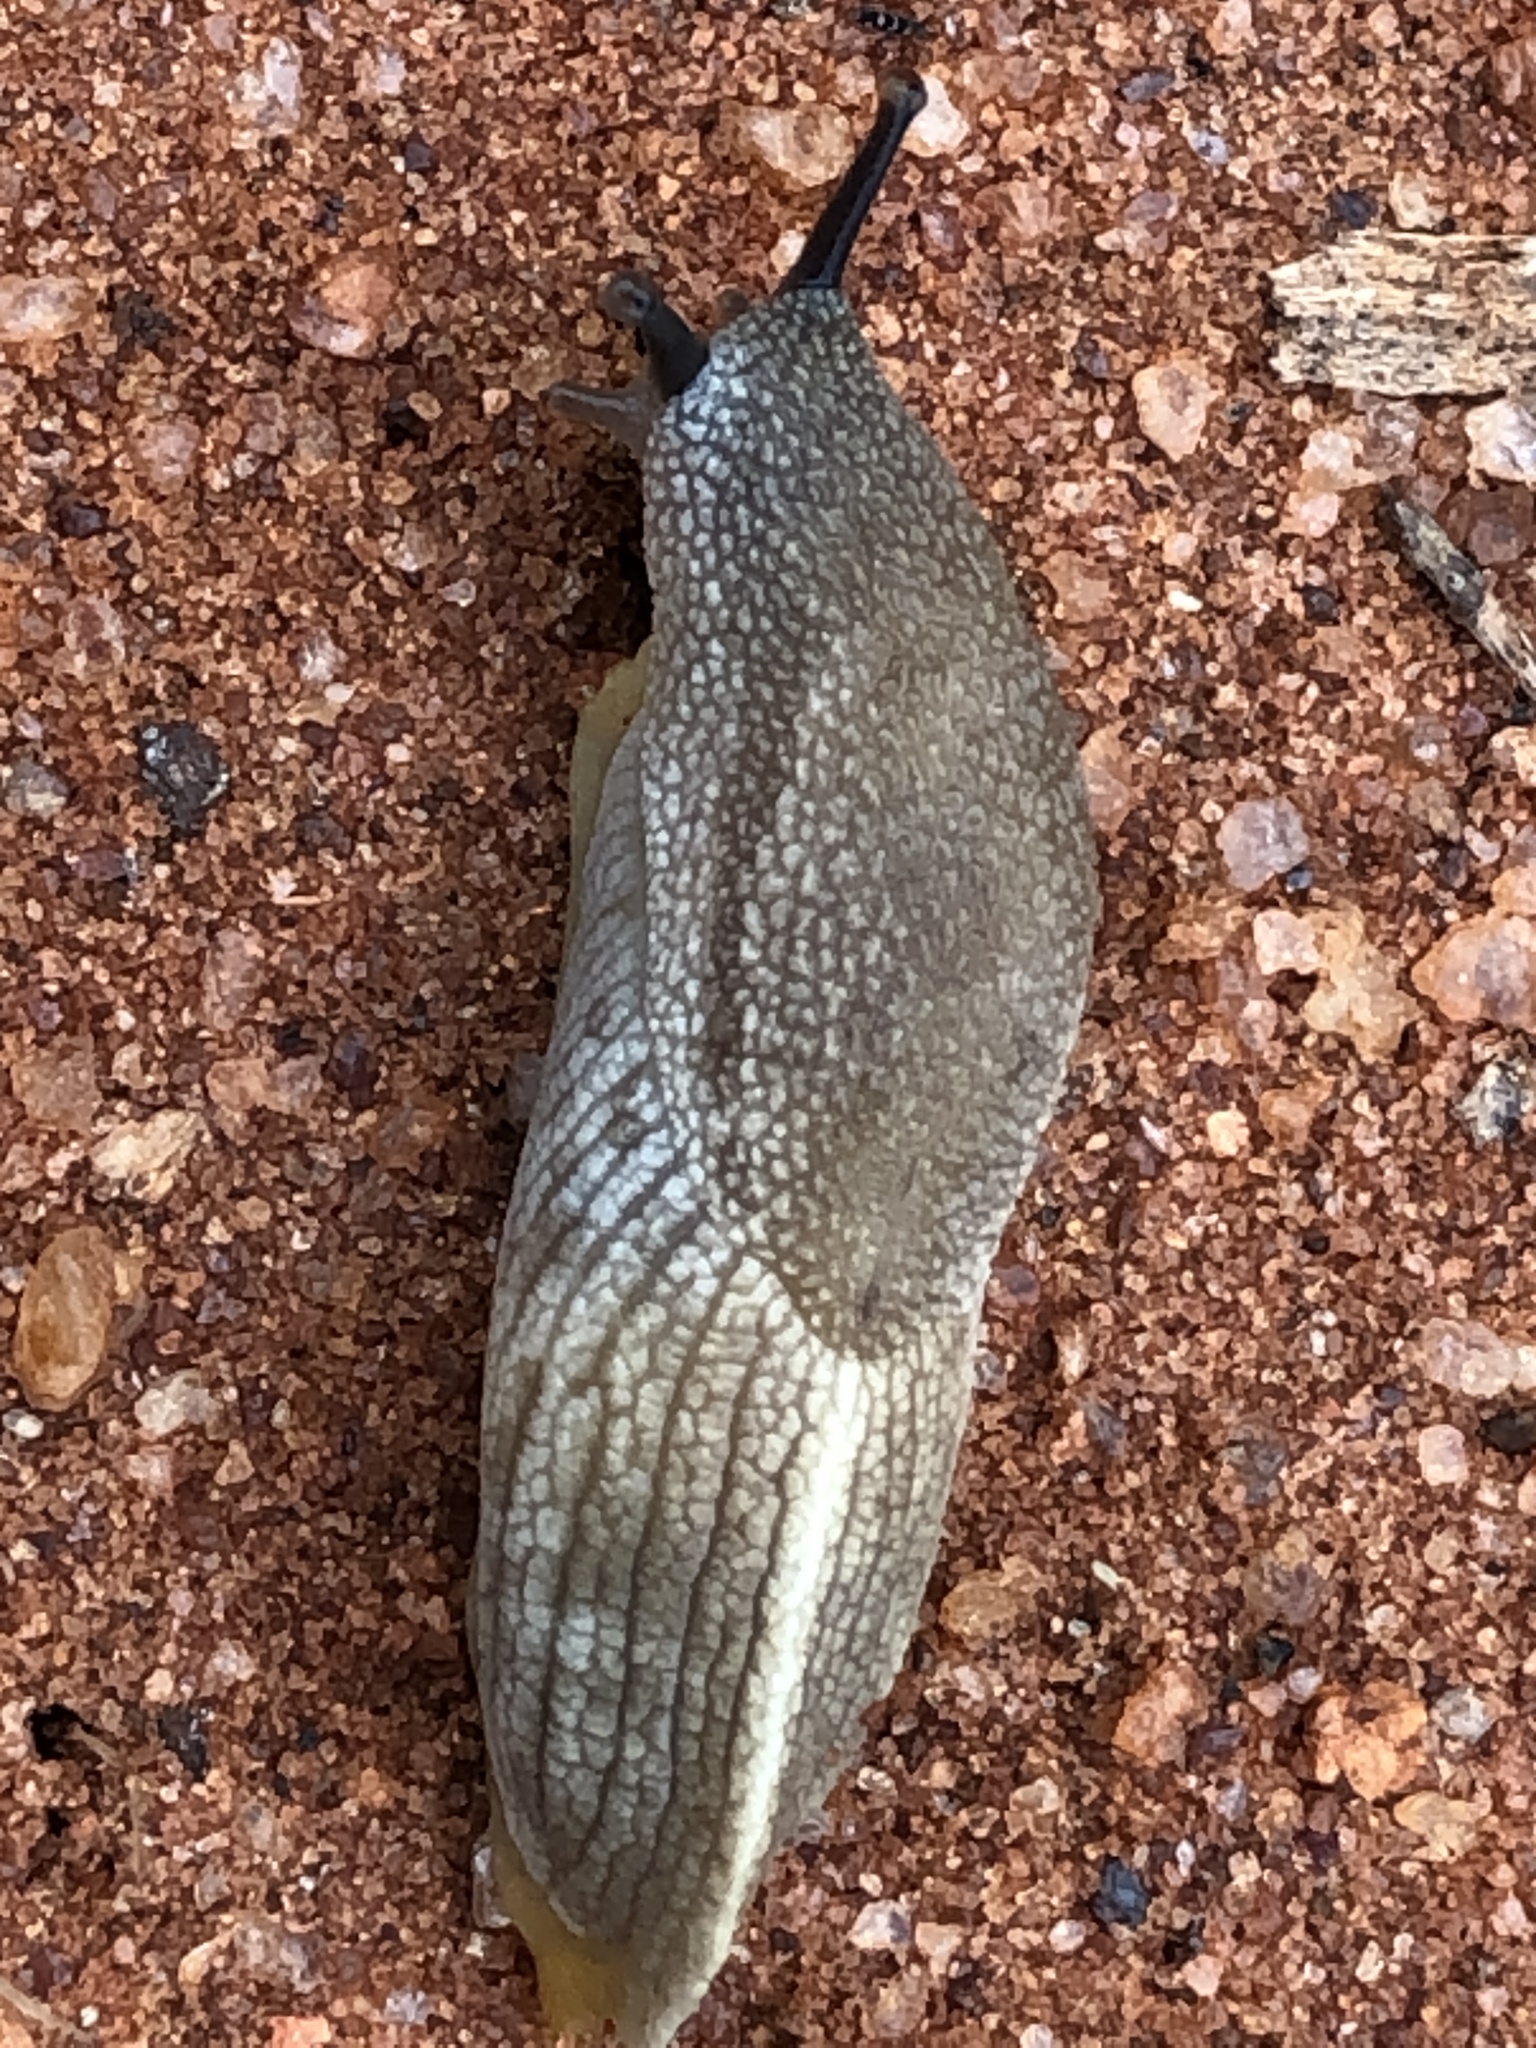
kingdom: Animalia
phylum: Mollusca
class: Gastropoda
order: Stylommatophora
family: Urocyclidae
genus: Urocyclus
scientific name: Urocyclus kirkii
